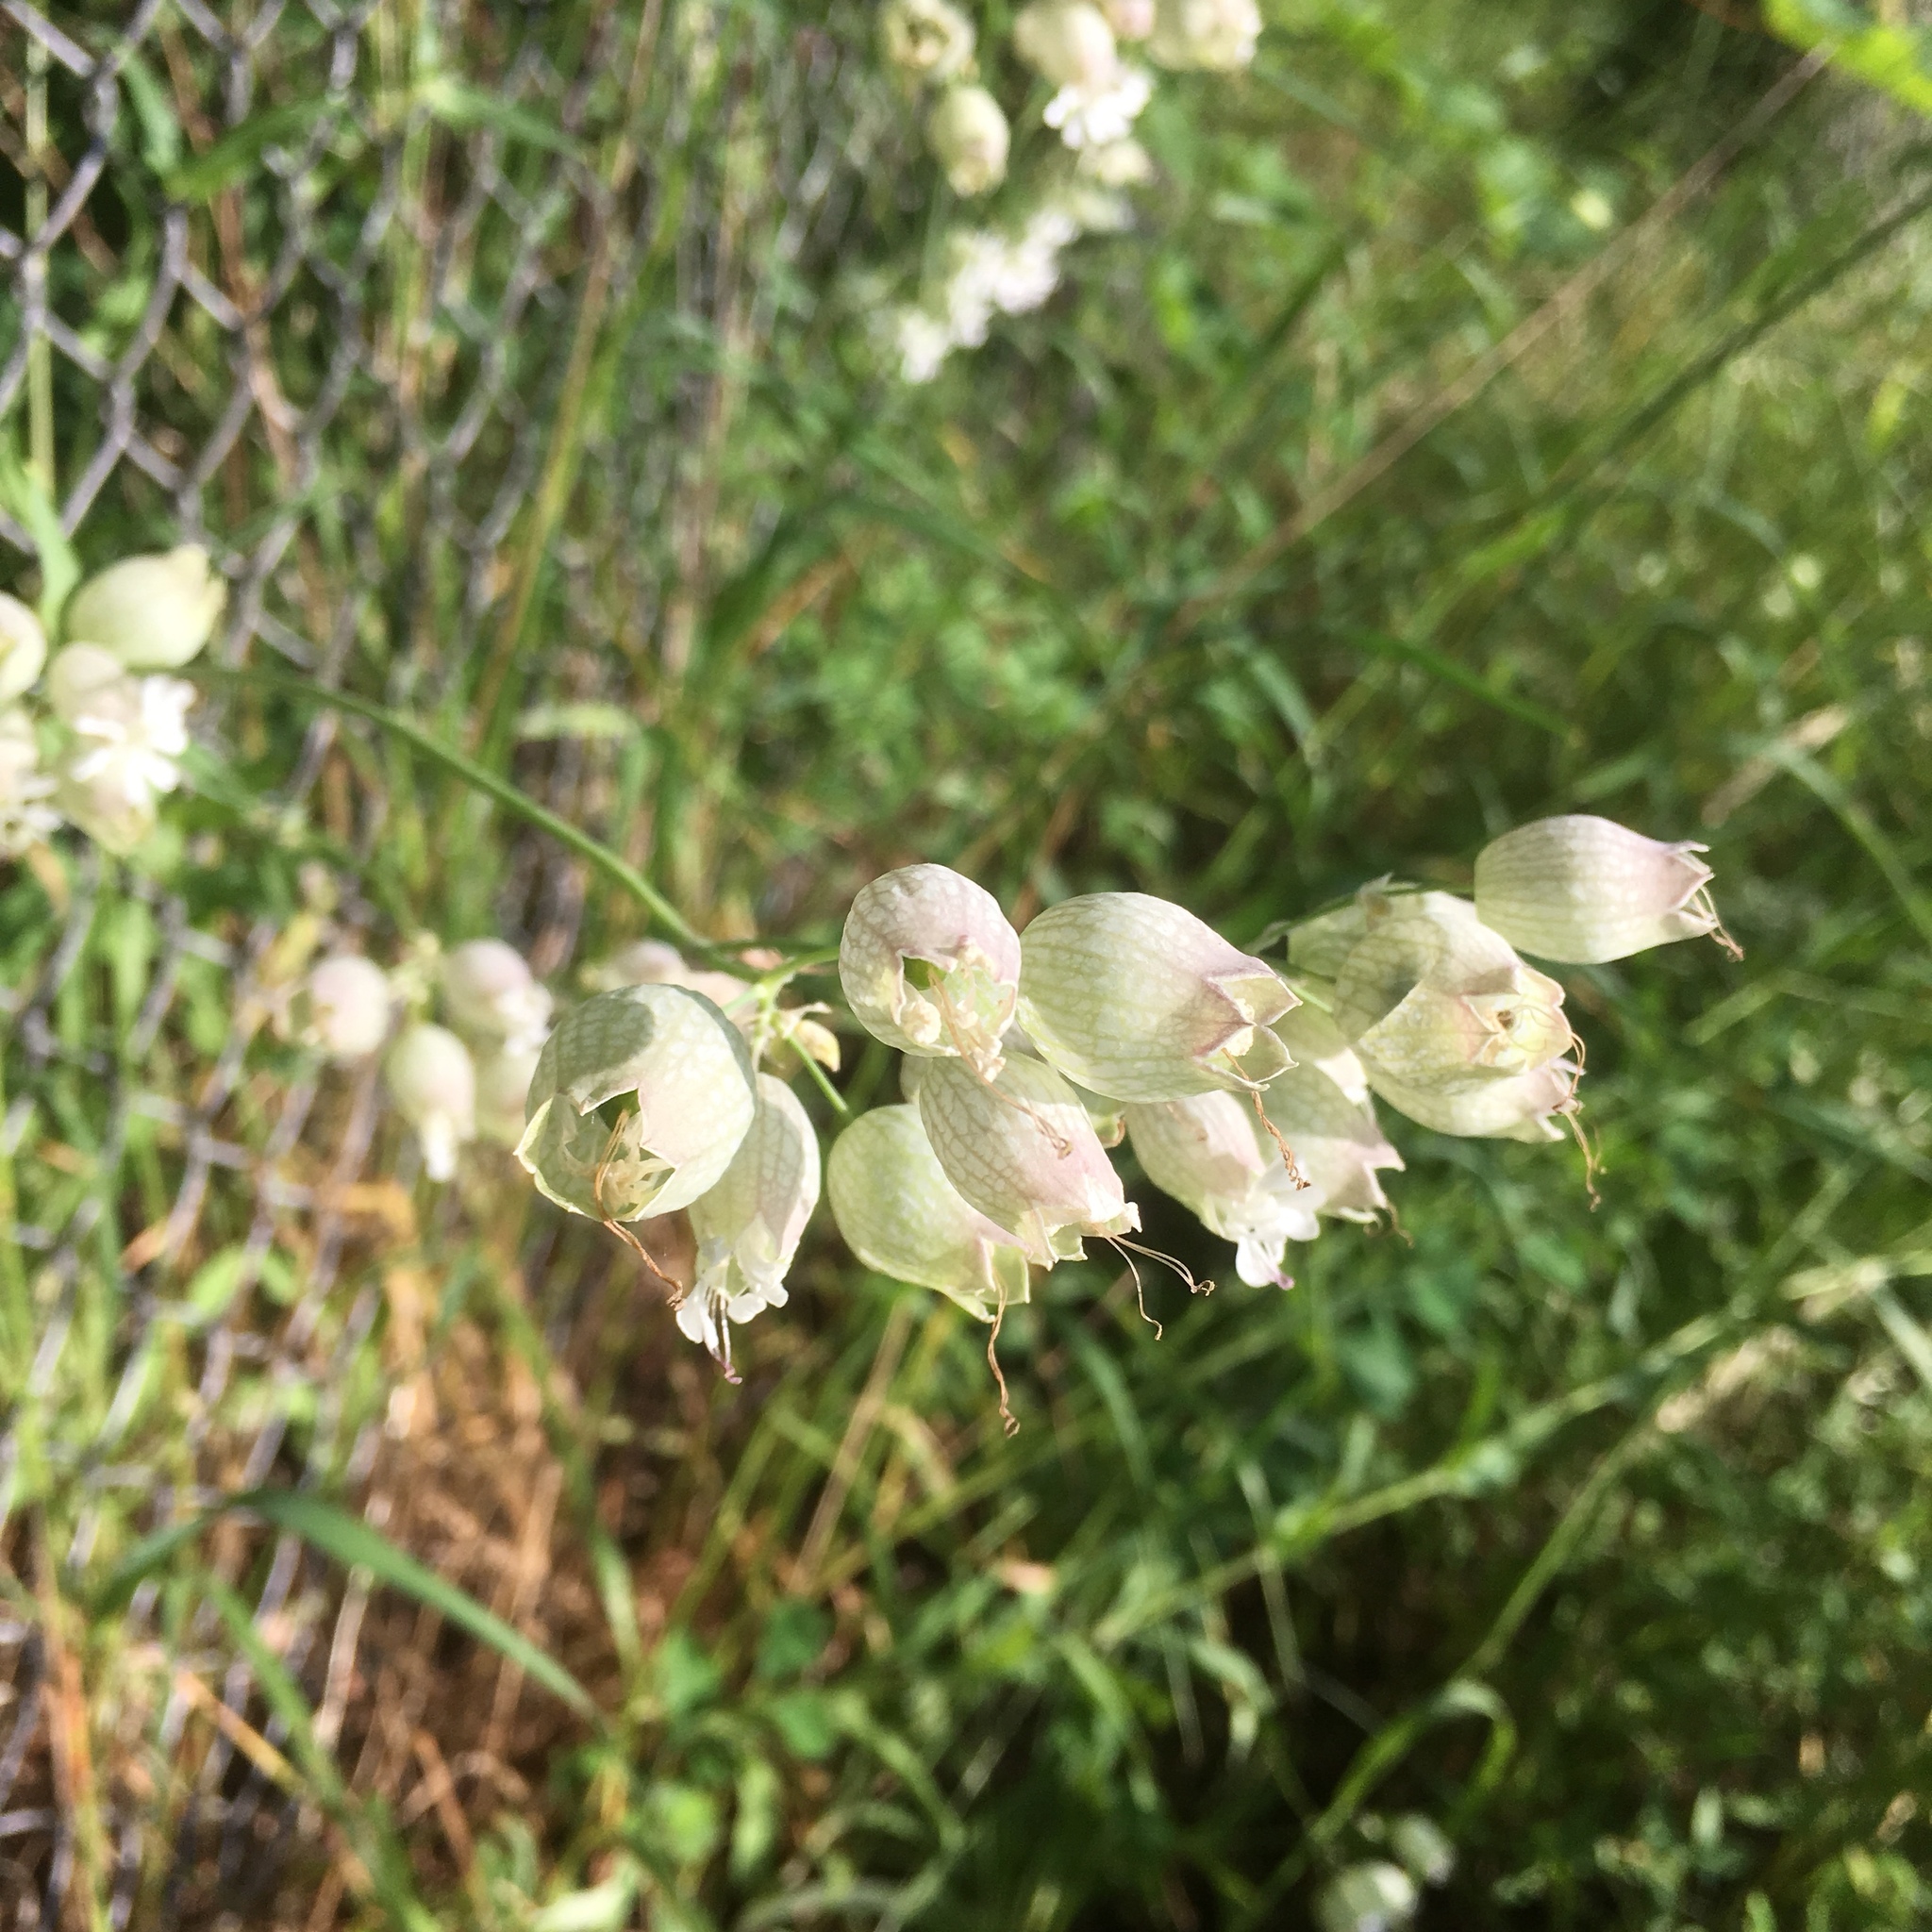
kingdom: Plantae
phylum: Tracheophyta
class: Magnoliopsida
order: Caryophyllales
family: Caryophyllaceae
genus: Silene
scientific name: Silene vulgaris
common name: Bladder campion
